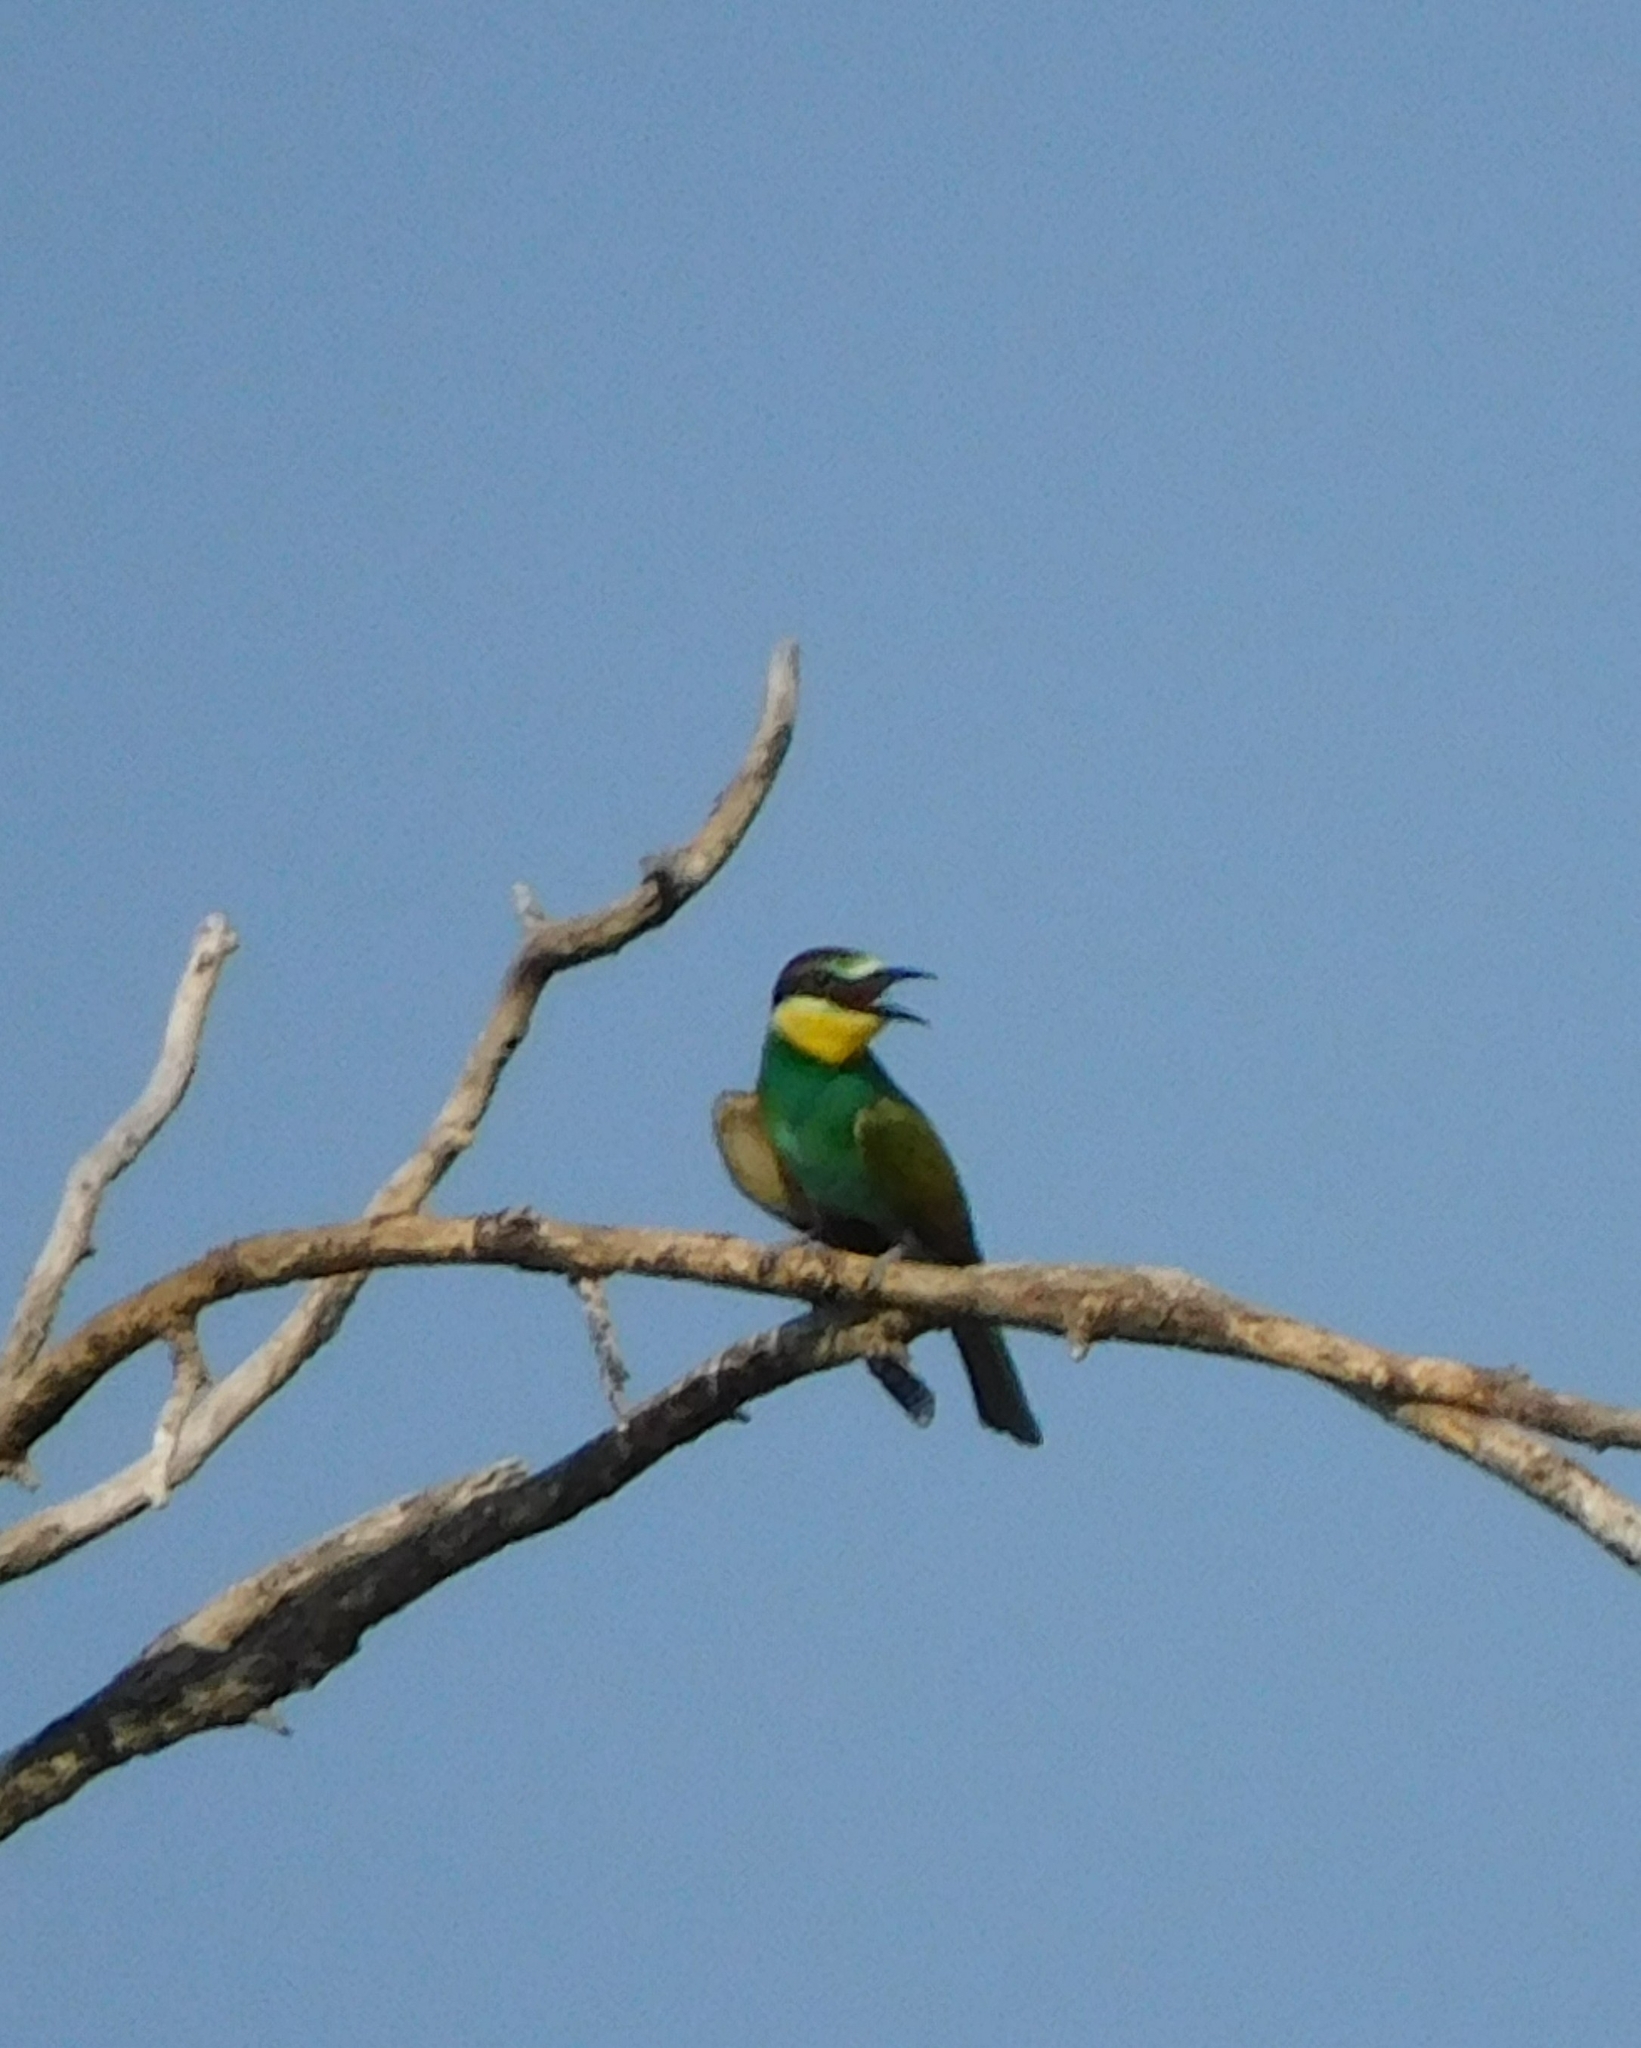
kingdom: Animalia
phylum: Chordata
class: Aves
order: Coraciiformes
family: Meropidae
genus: Merops
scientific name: Merops apiaster
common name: European bee-eater
